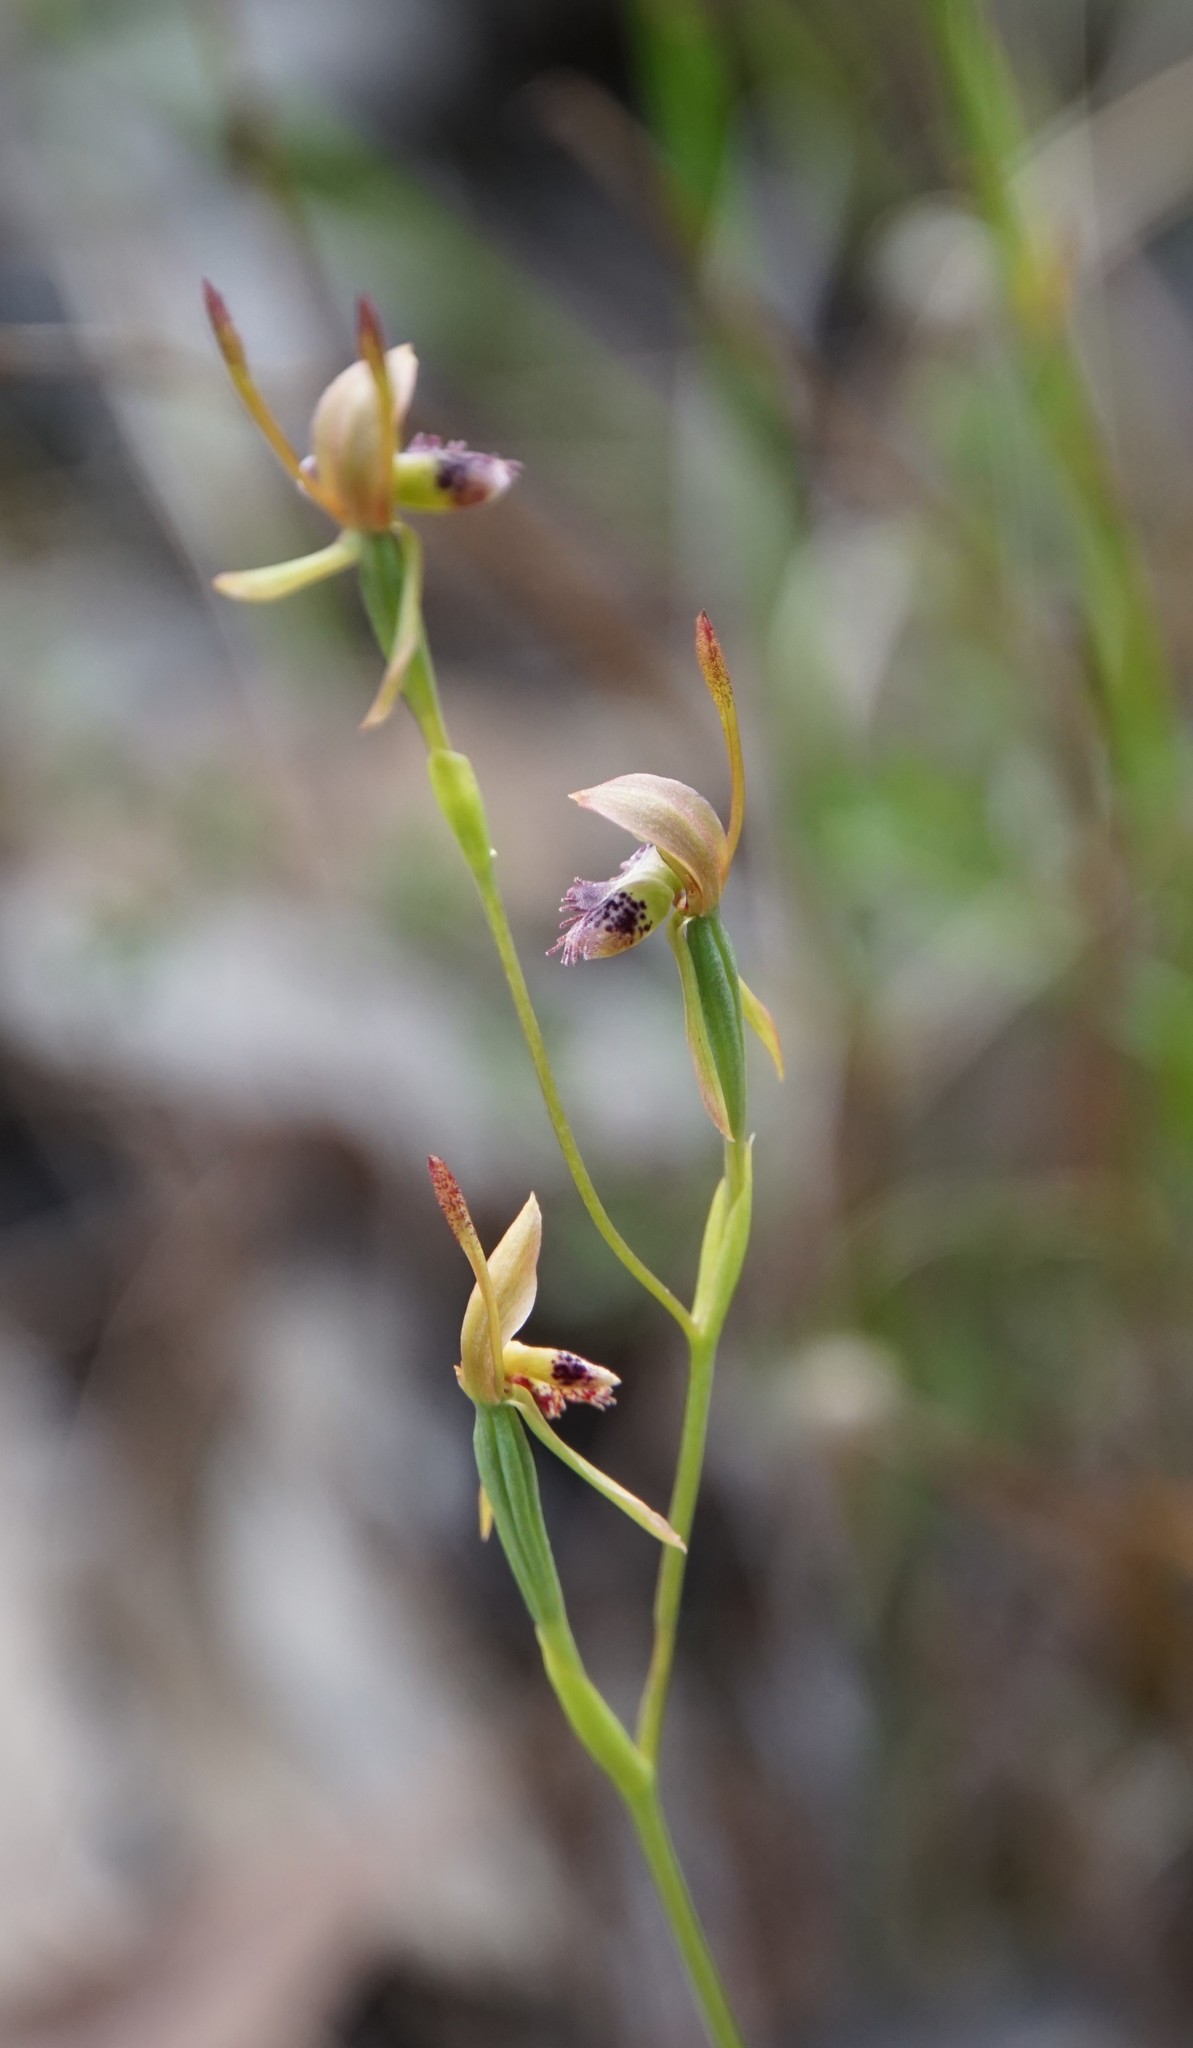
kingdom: Plantae
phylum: Tracheophyta
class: Liliopsida
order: Asparagales
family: Orchidaceae
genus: Leporella
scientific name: Leporella fimbriata
